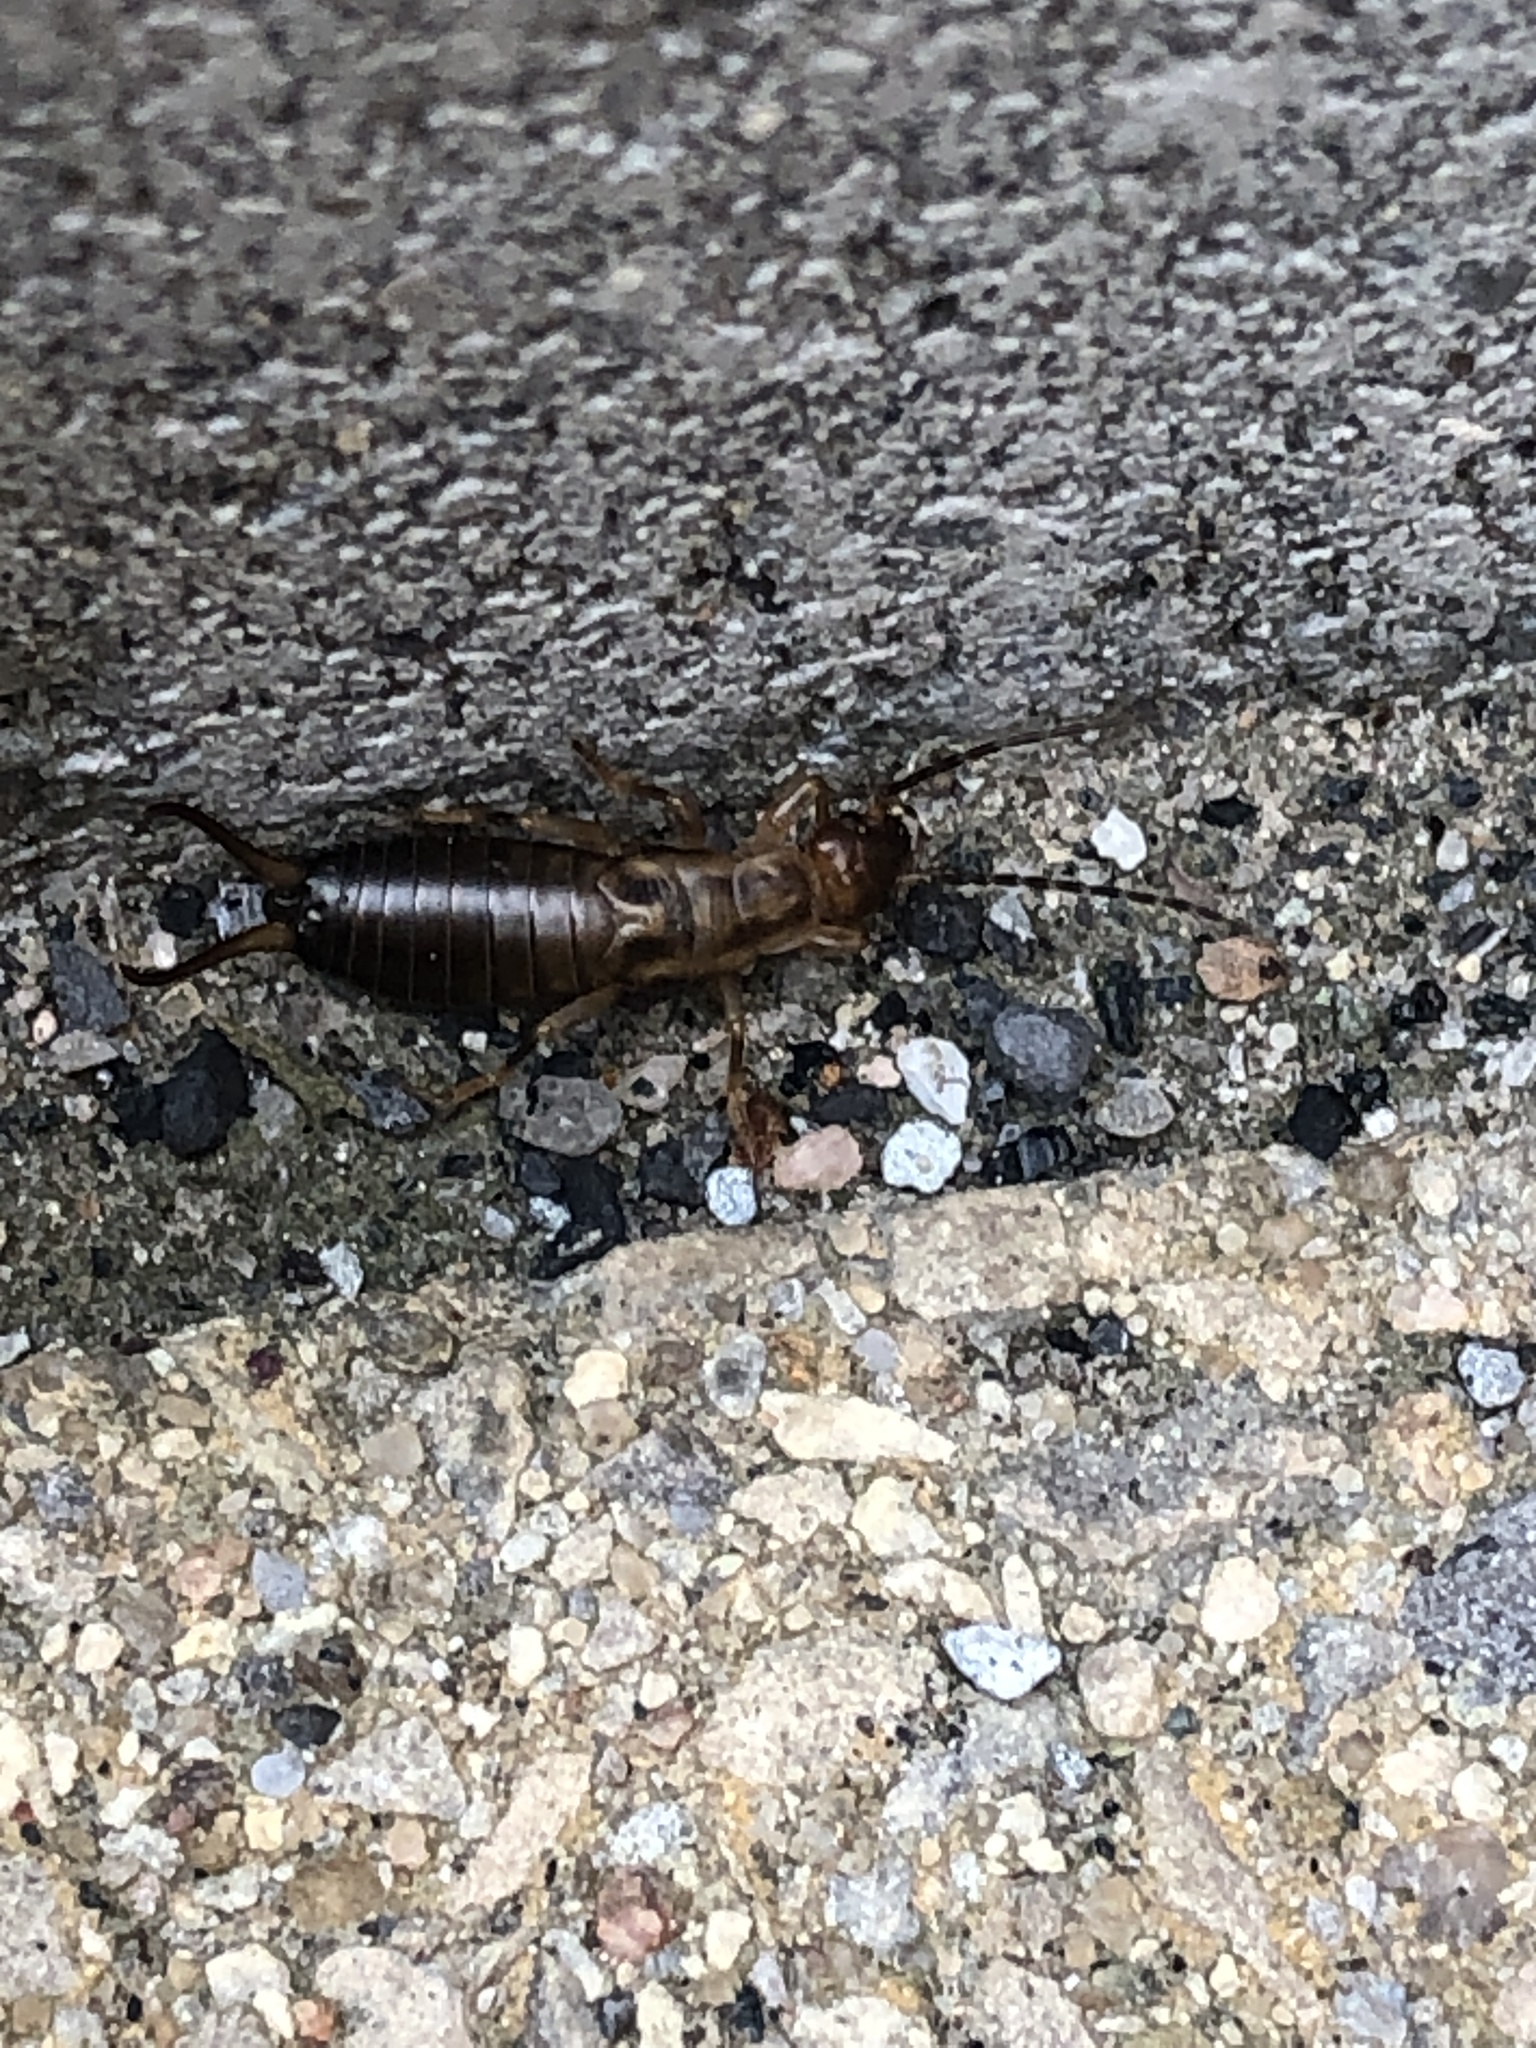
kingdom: Animalia
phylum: Arthropoda
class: Insecta
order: Dermaptera
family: Forficulidae
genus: Forficula
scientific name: Forficula
